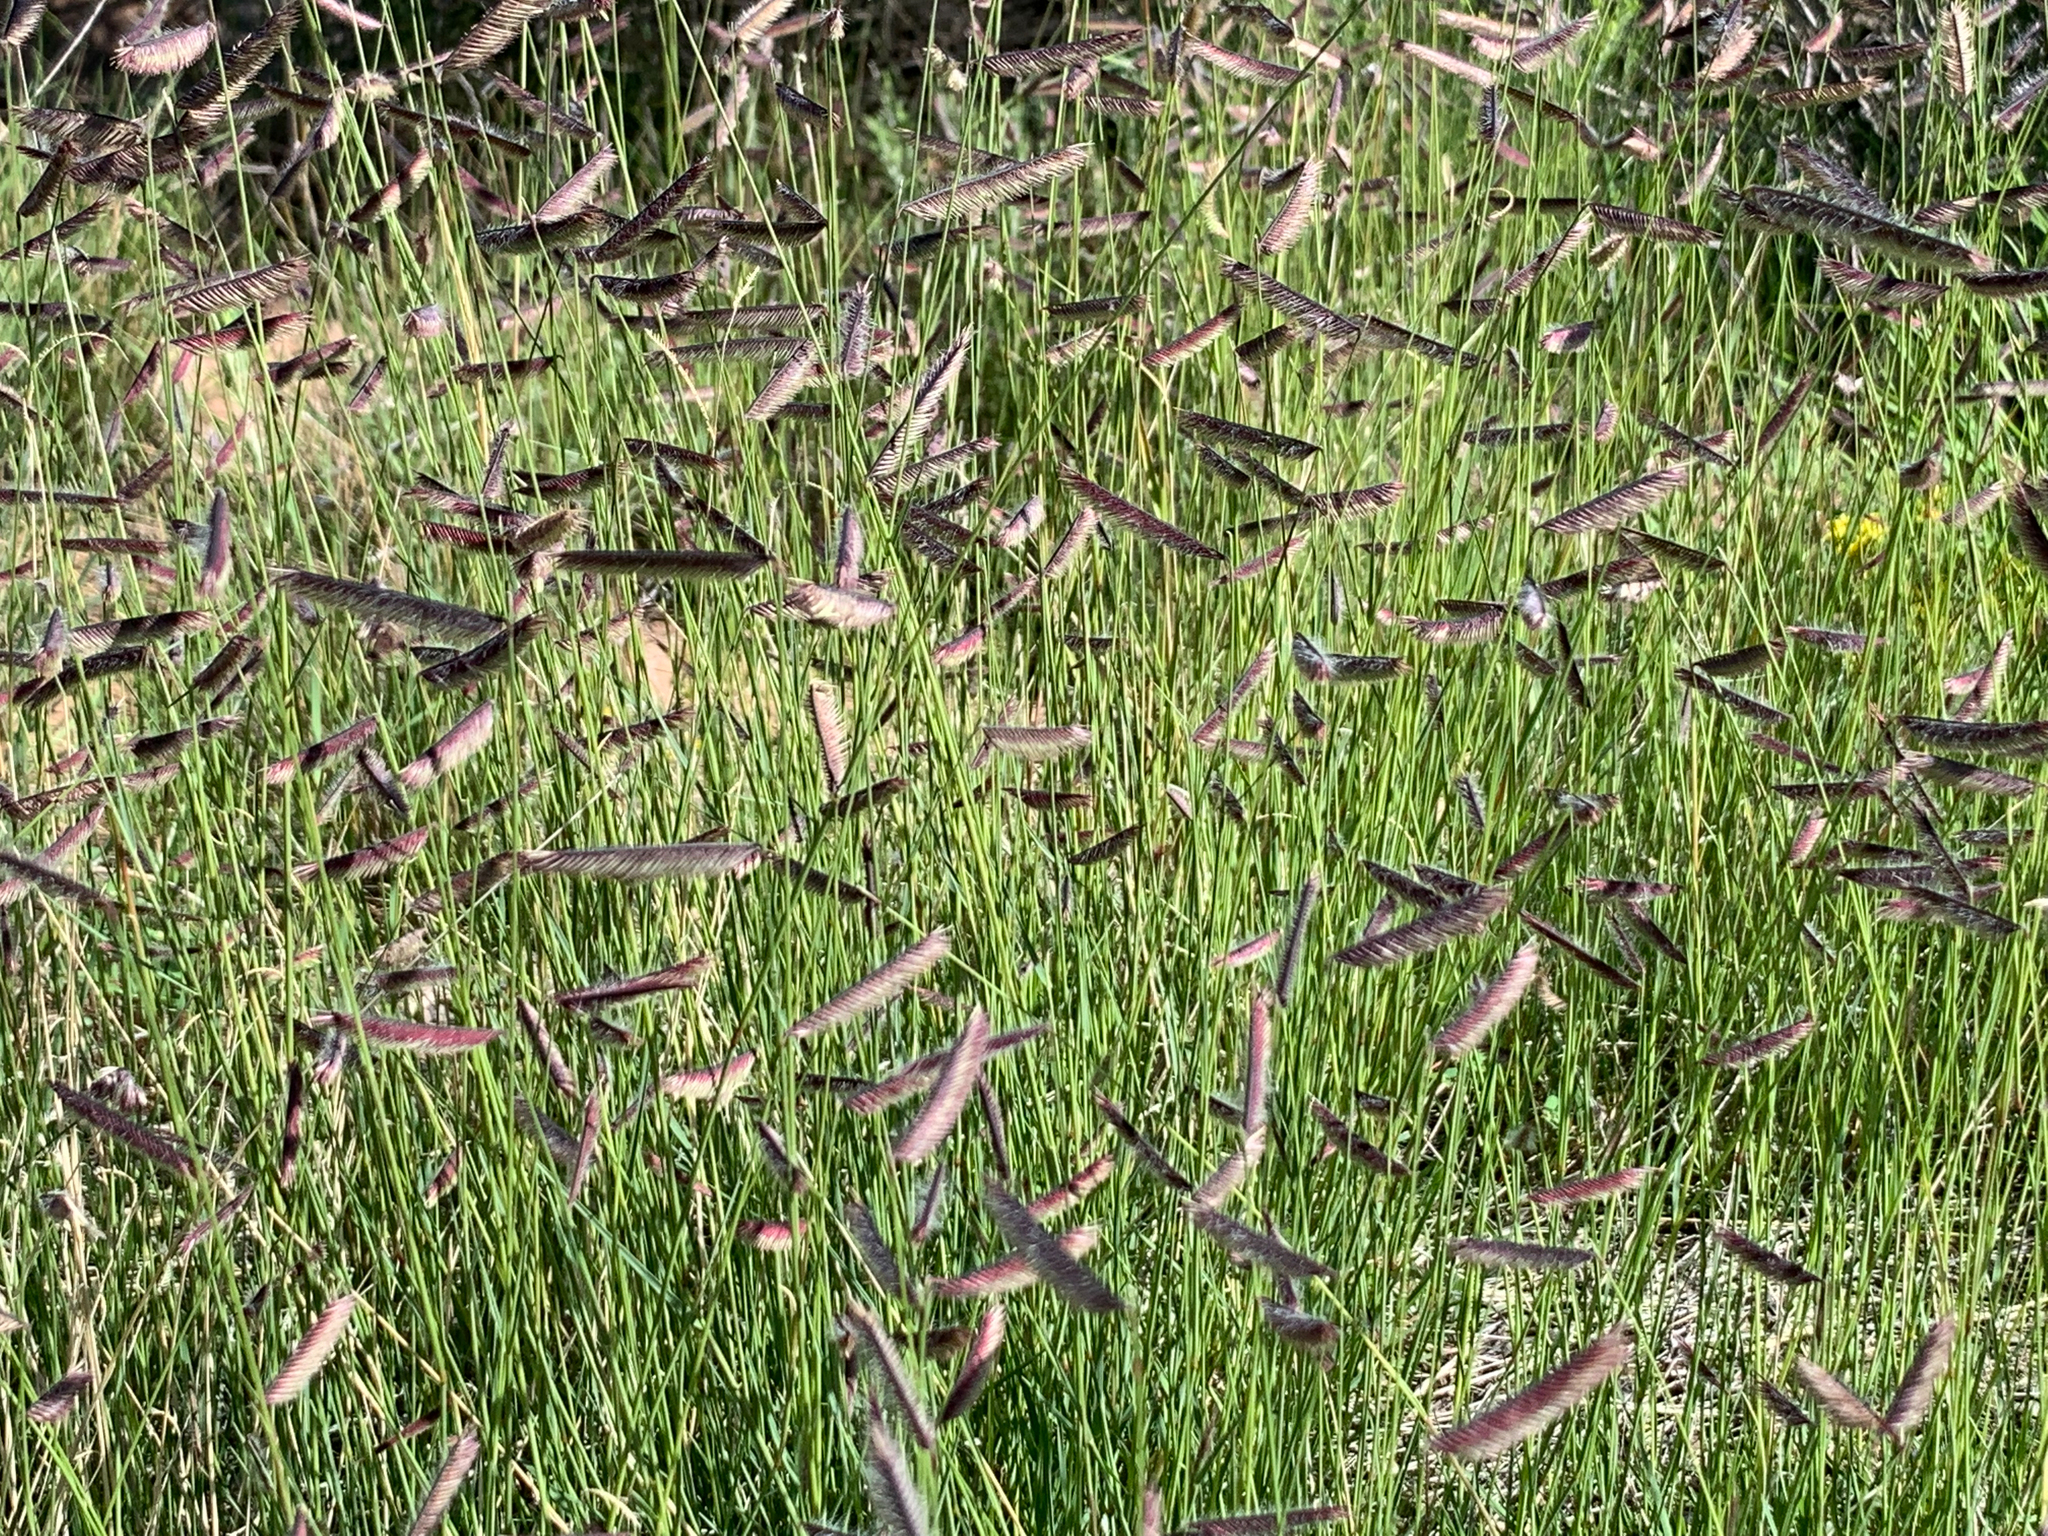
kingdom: Plantae
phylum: Tracheophyta
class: Liliopsida
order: Poales
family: Poaceae
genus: Bouteloua
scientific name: Bouteloua gracilis
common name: Blue grama
